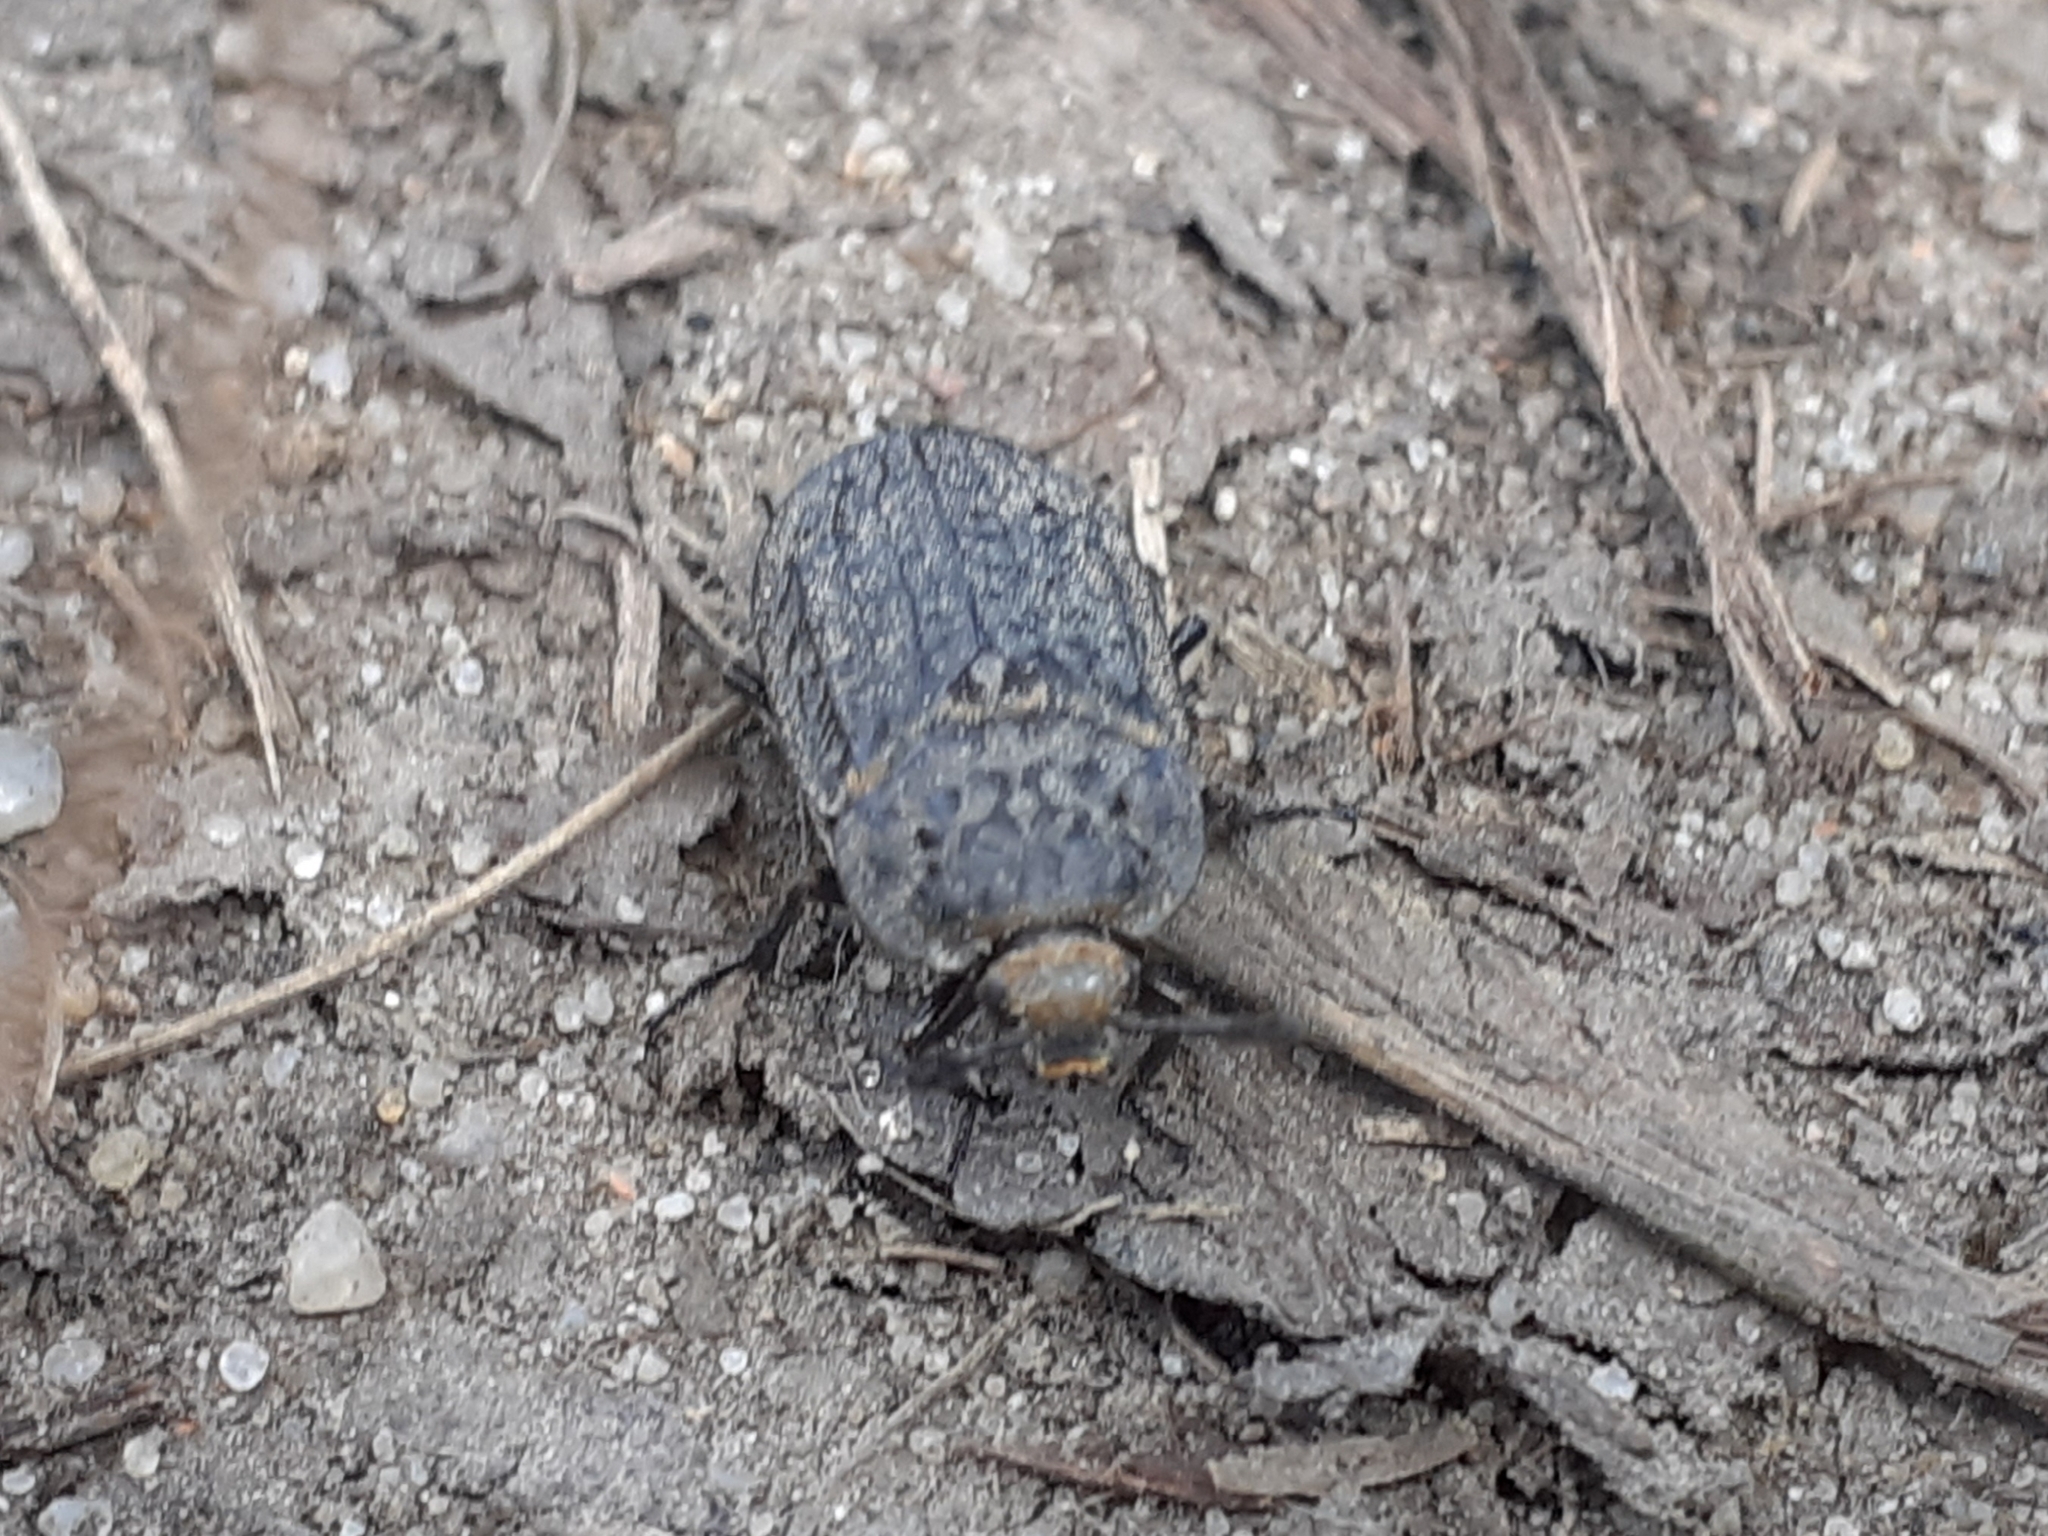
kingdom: Animalia
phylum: Arthropoda
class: Insecta
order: Coleoptera
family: Staphylinidae
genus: Thanatophilus
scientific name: Thanatophilus rugosus
